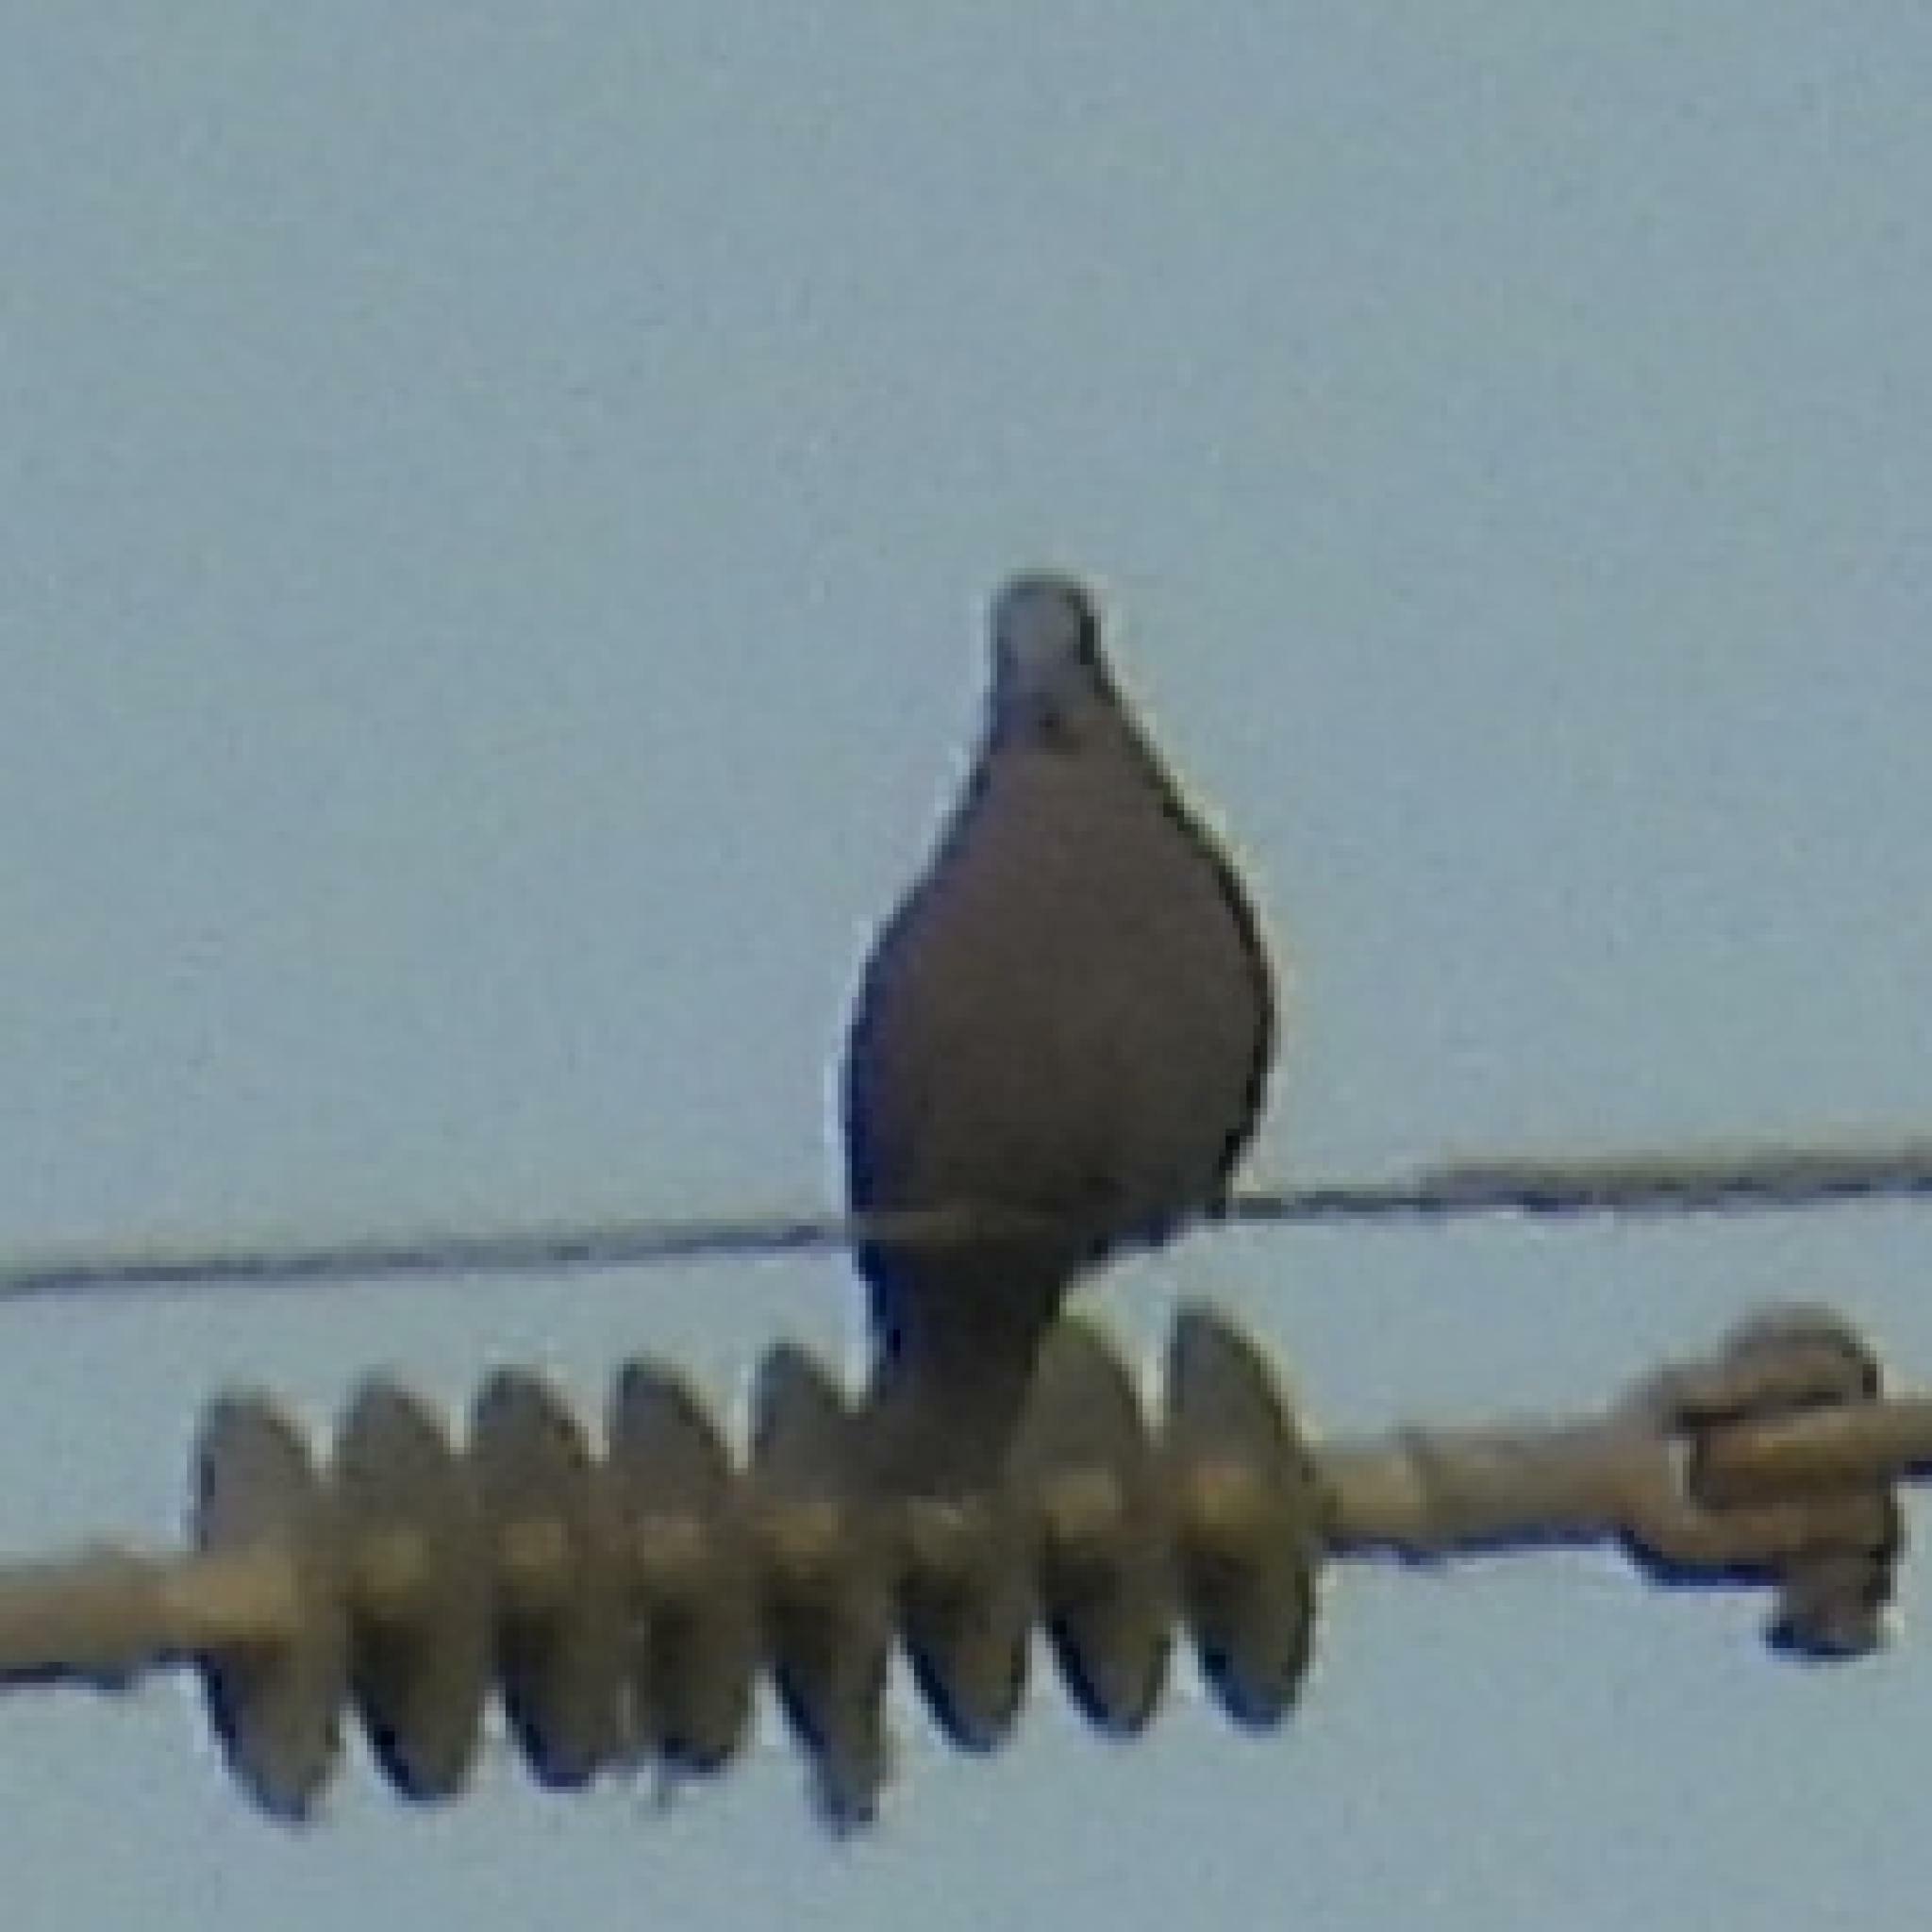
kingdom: Animalia
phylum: Chordata
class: Aves
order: Columbiformes
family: Columbidae
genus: Streptopelia
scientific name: Streptopelia semitorquata
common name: Red-eyed dove
